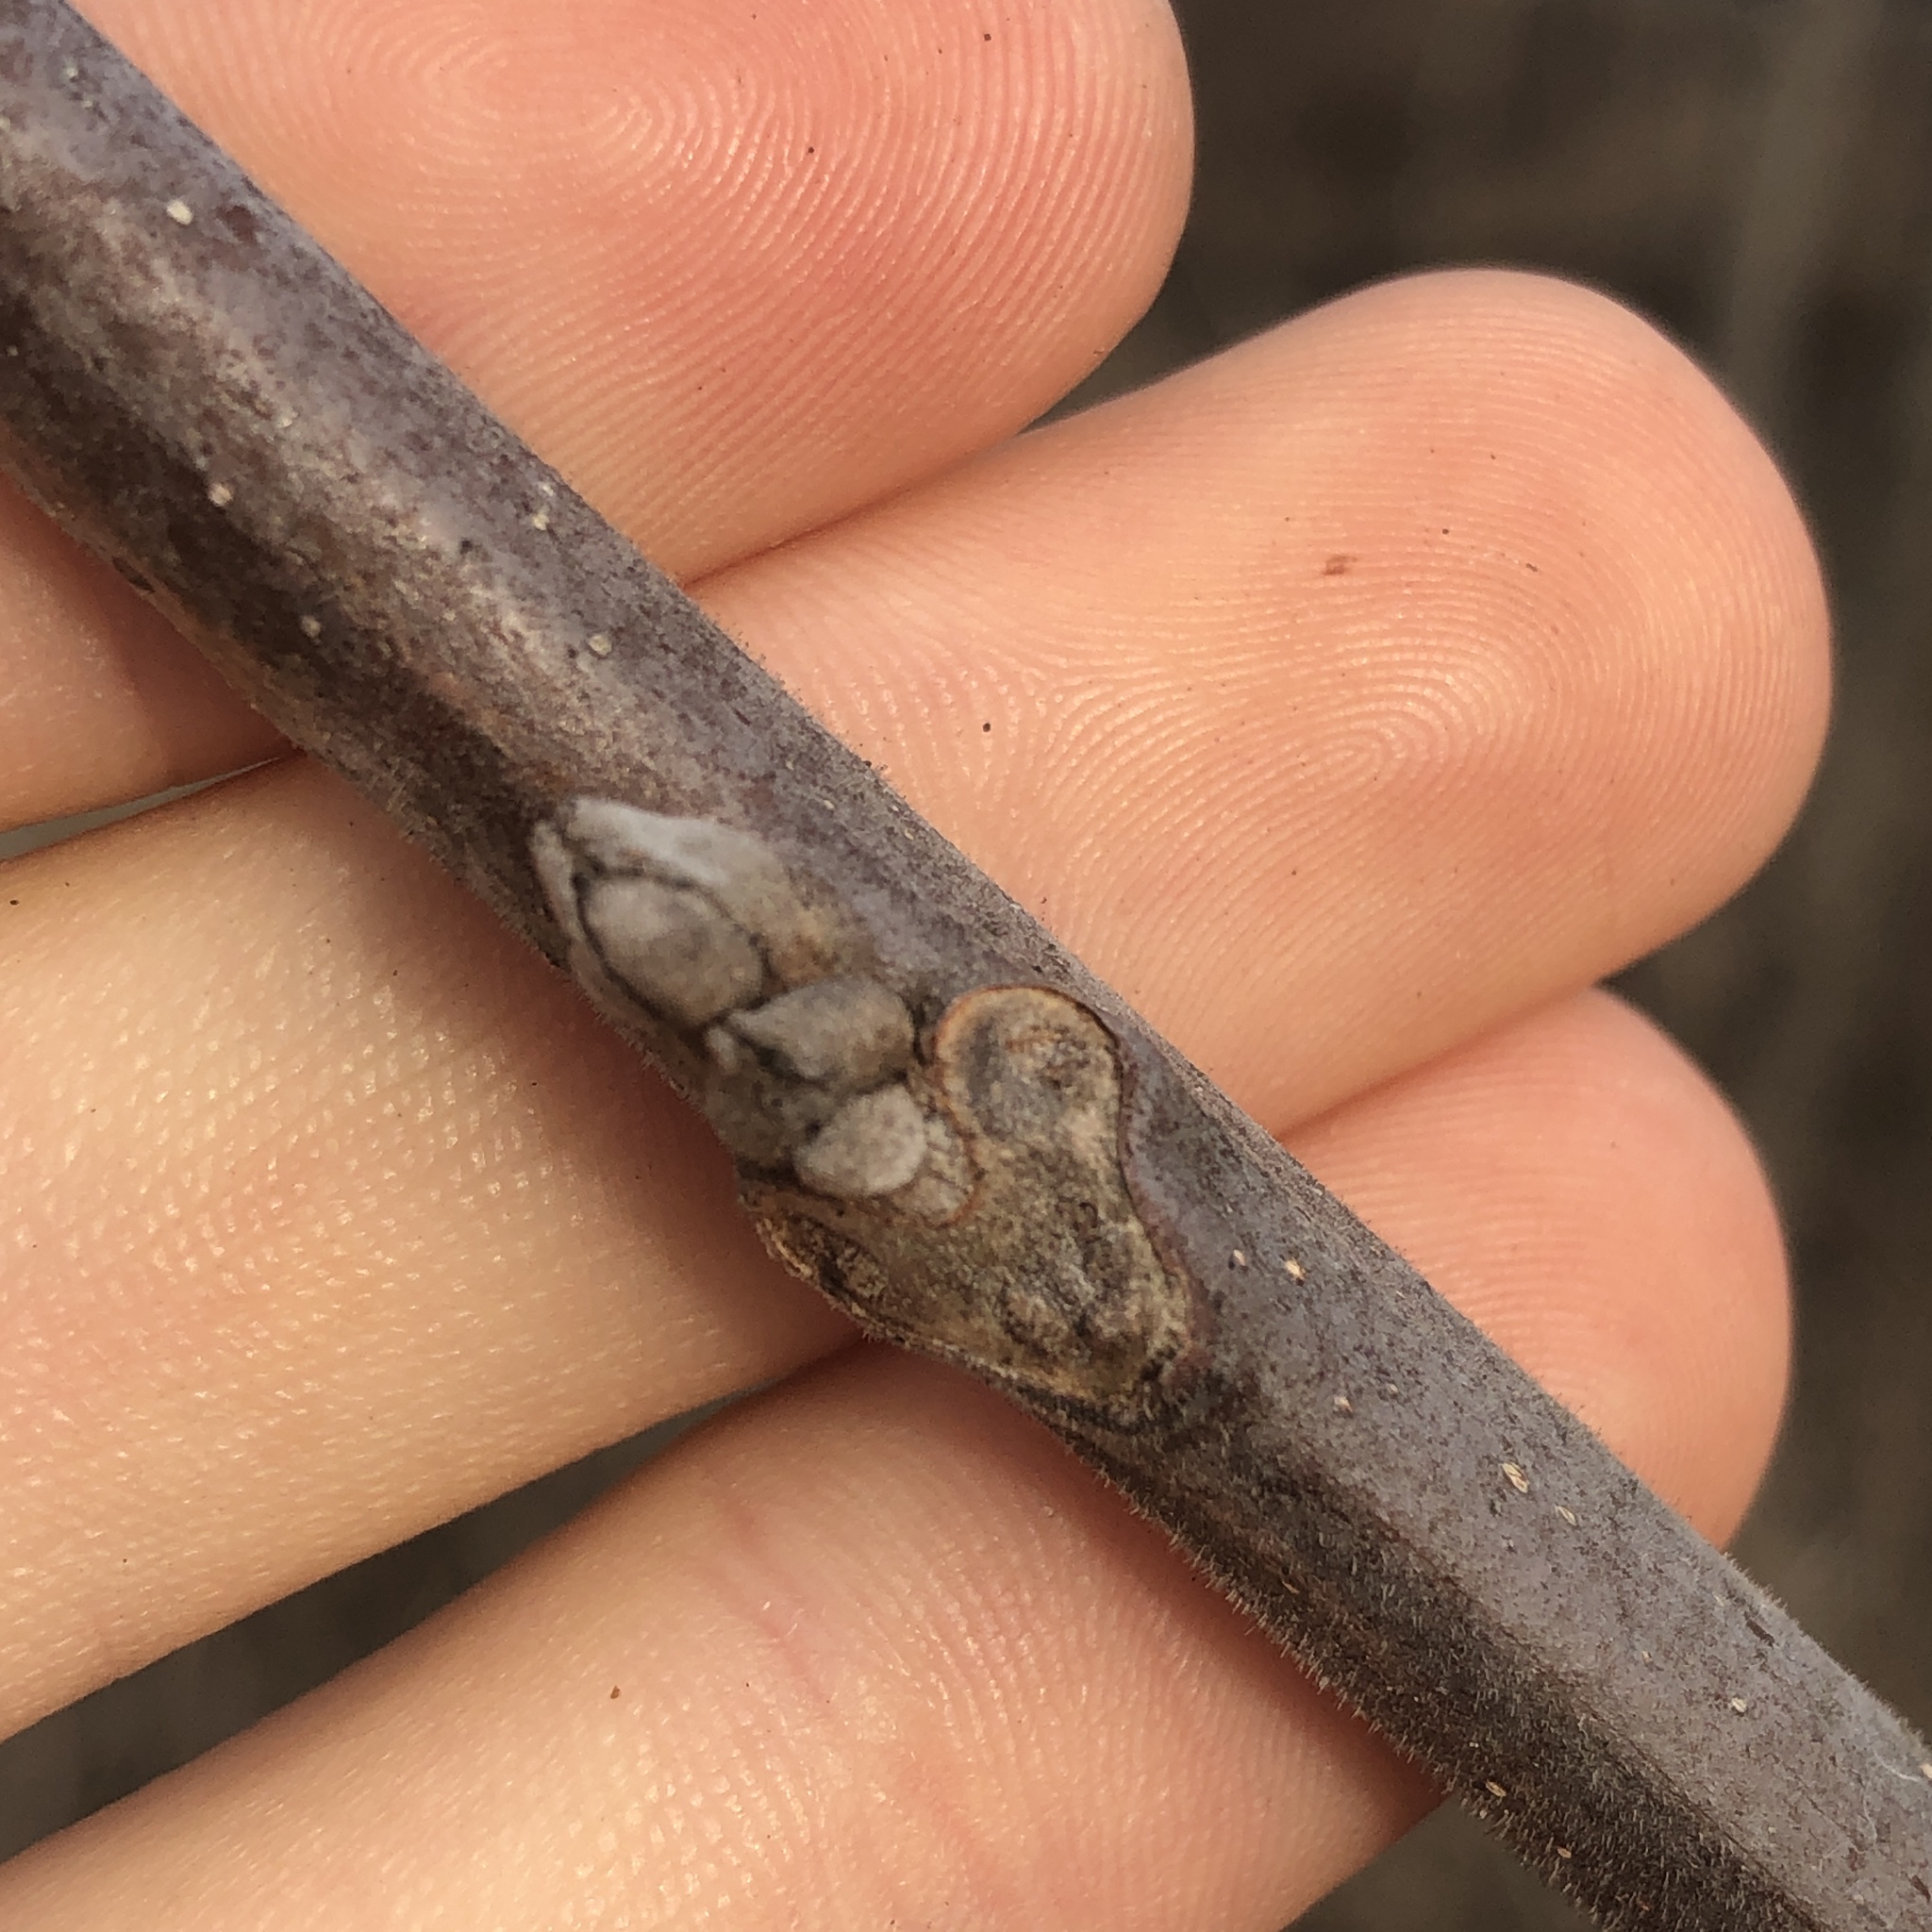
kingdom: Plantae
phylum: Tracheophyta
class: Magnoliopsida
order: Fagales
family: Juglandaceae
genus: Juglans
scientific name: Juglans nigra
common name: Black walnut
